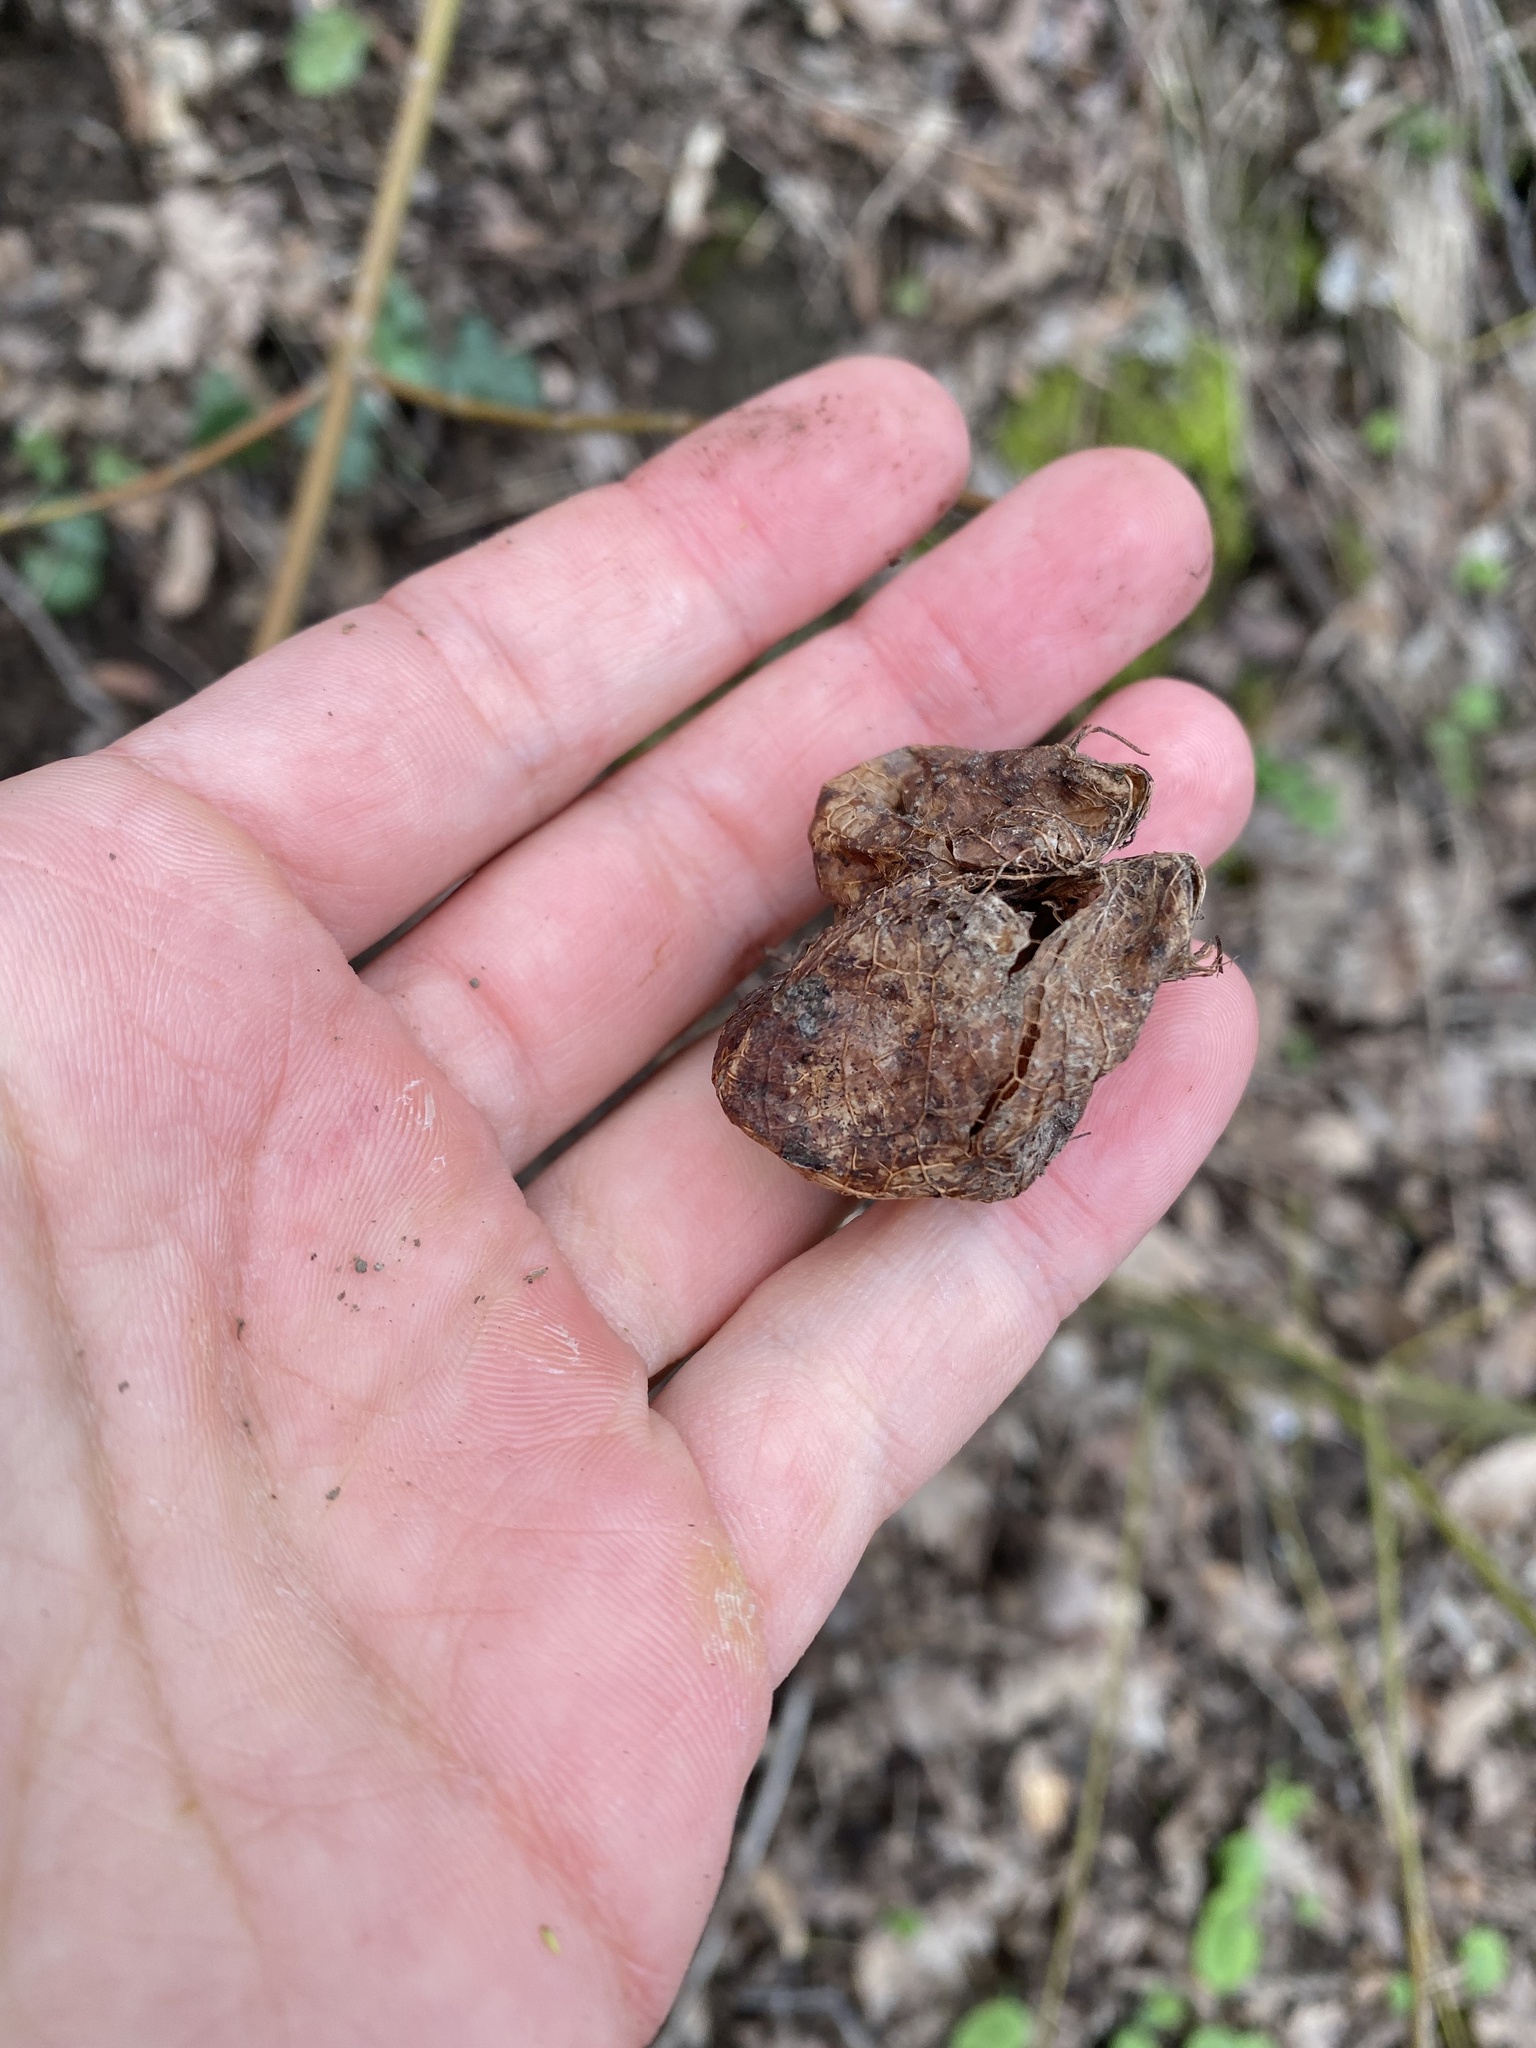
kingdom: Plantae
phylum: Tracheophyta
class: Magnoliopsida
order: Crossosomatales
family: Staphyleaceae
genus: Staphylea
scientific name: Staphylea pinnata
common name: Bladdernut
